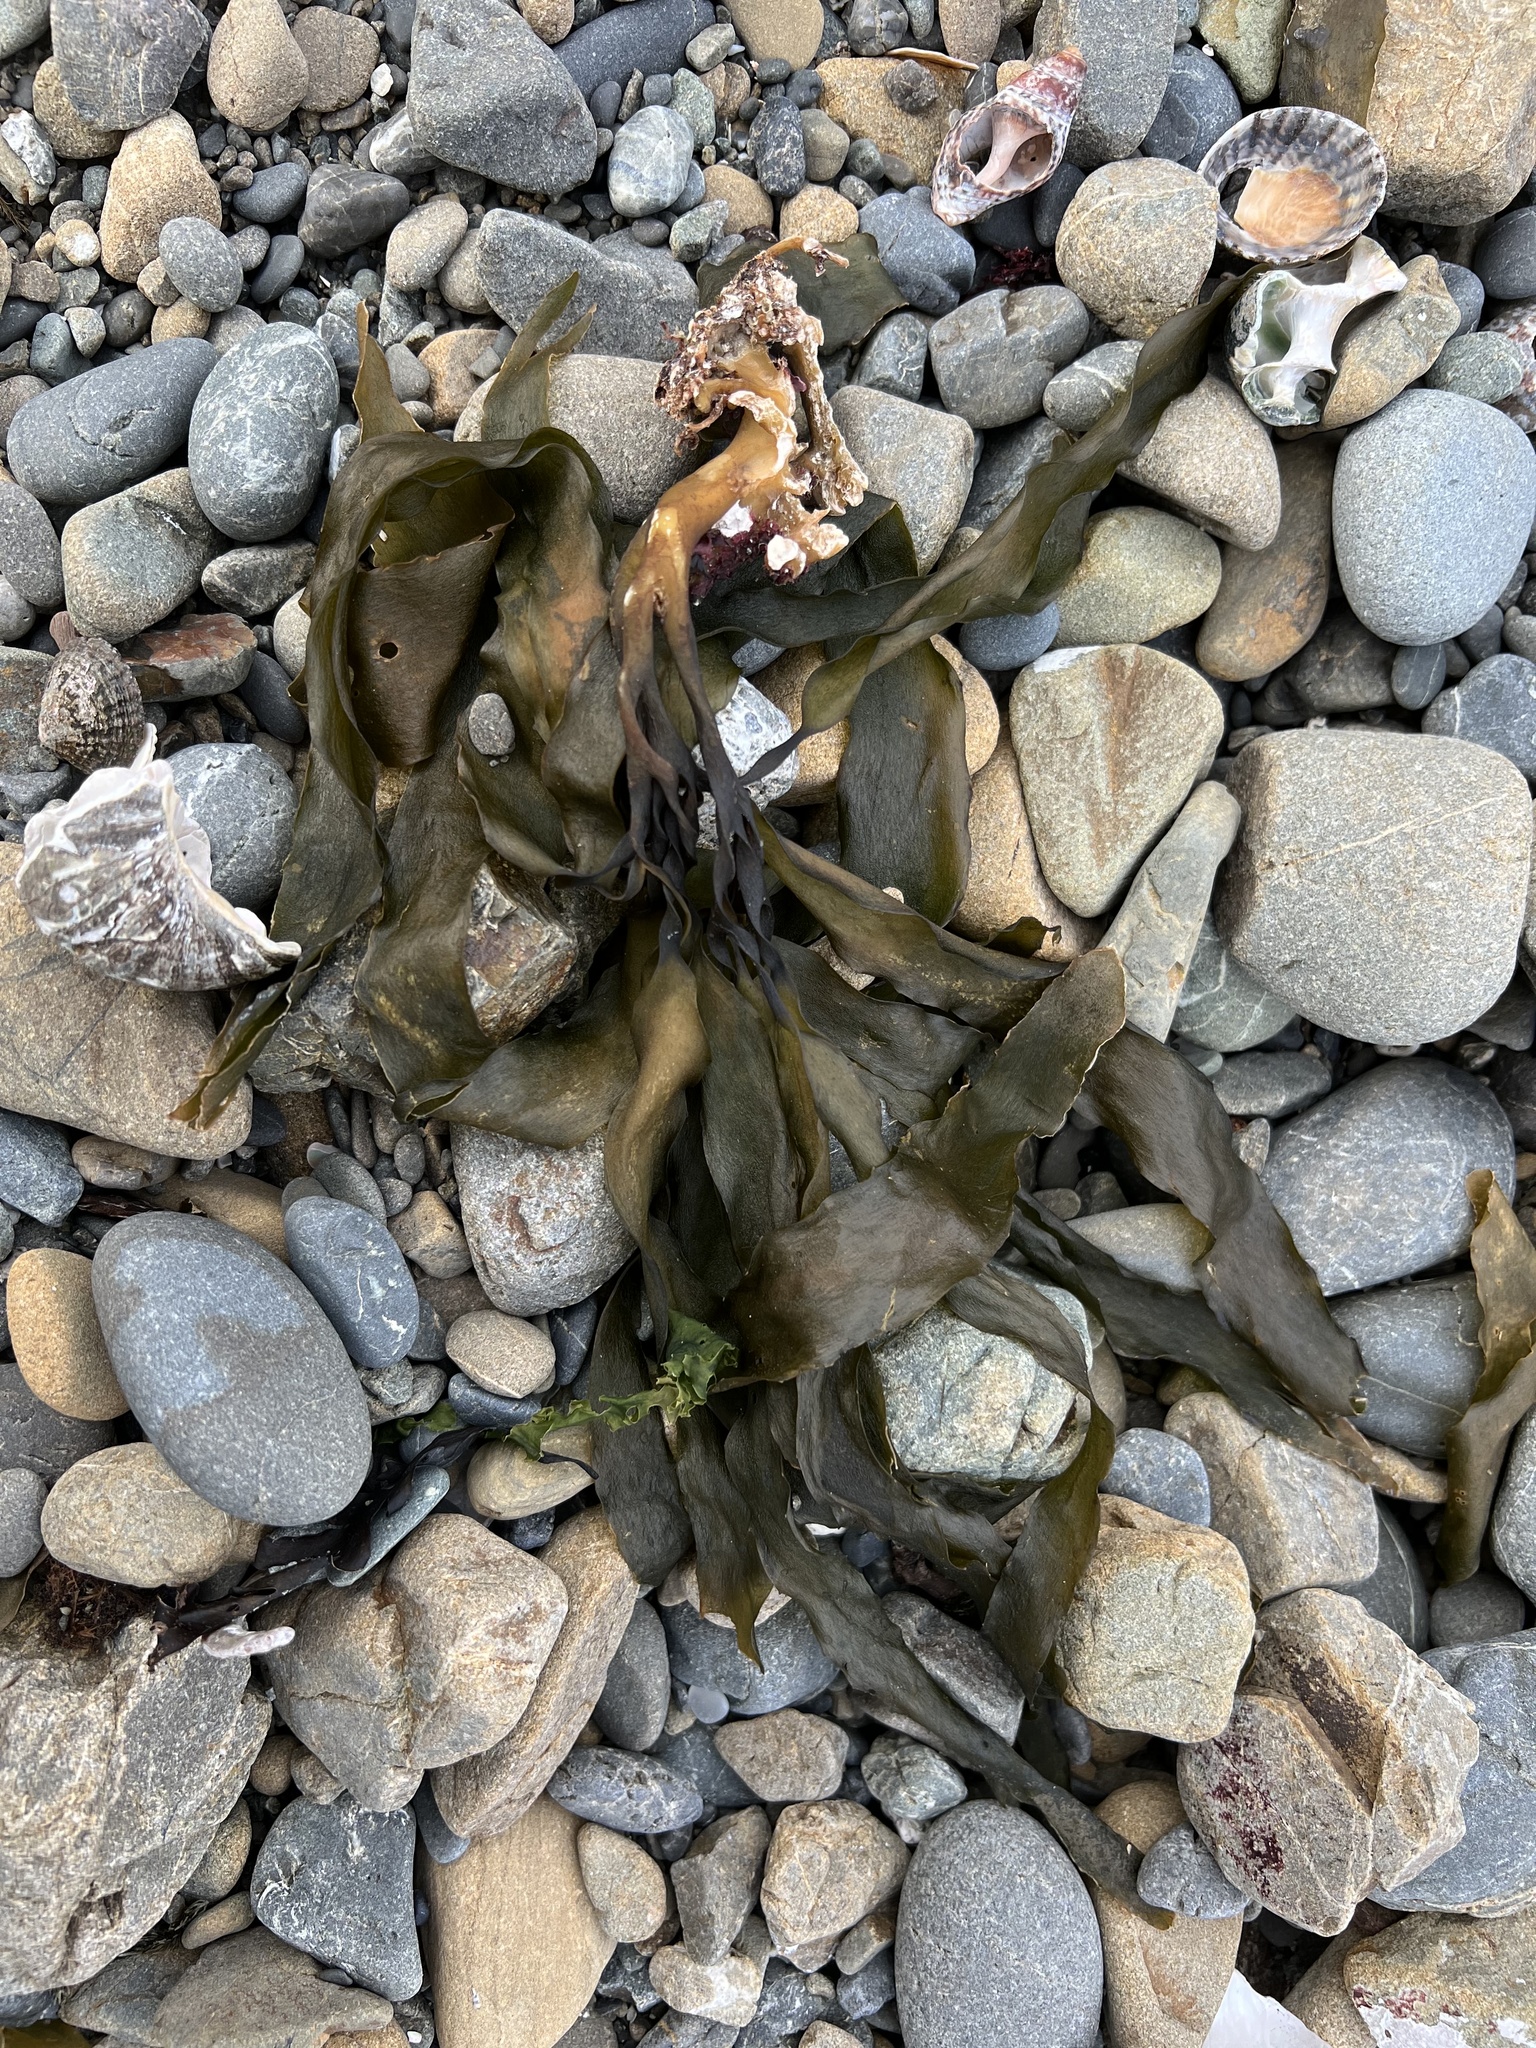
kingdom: Chromista
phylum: Ochrophyta
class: Phaeophyceae
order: Laminariales
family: Lessoniaceae
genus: Lessonia
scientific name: Lessonia variegata
